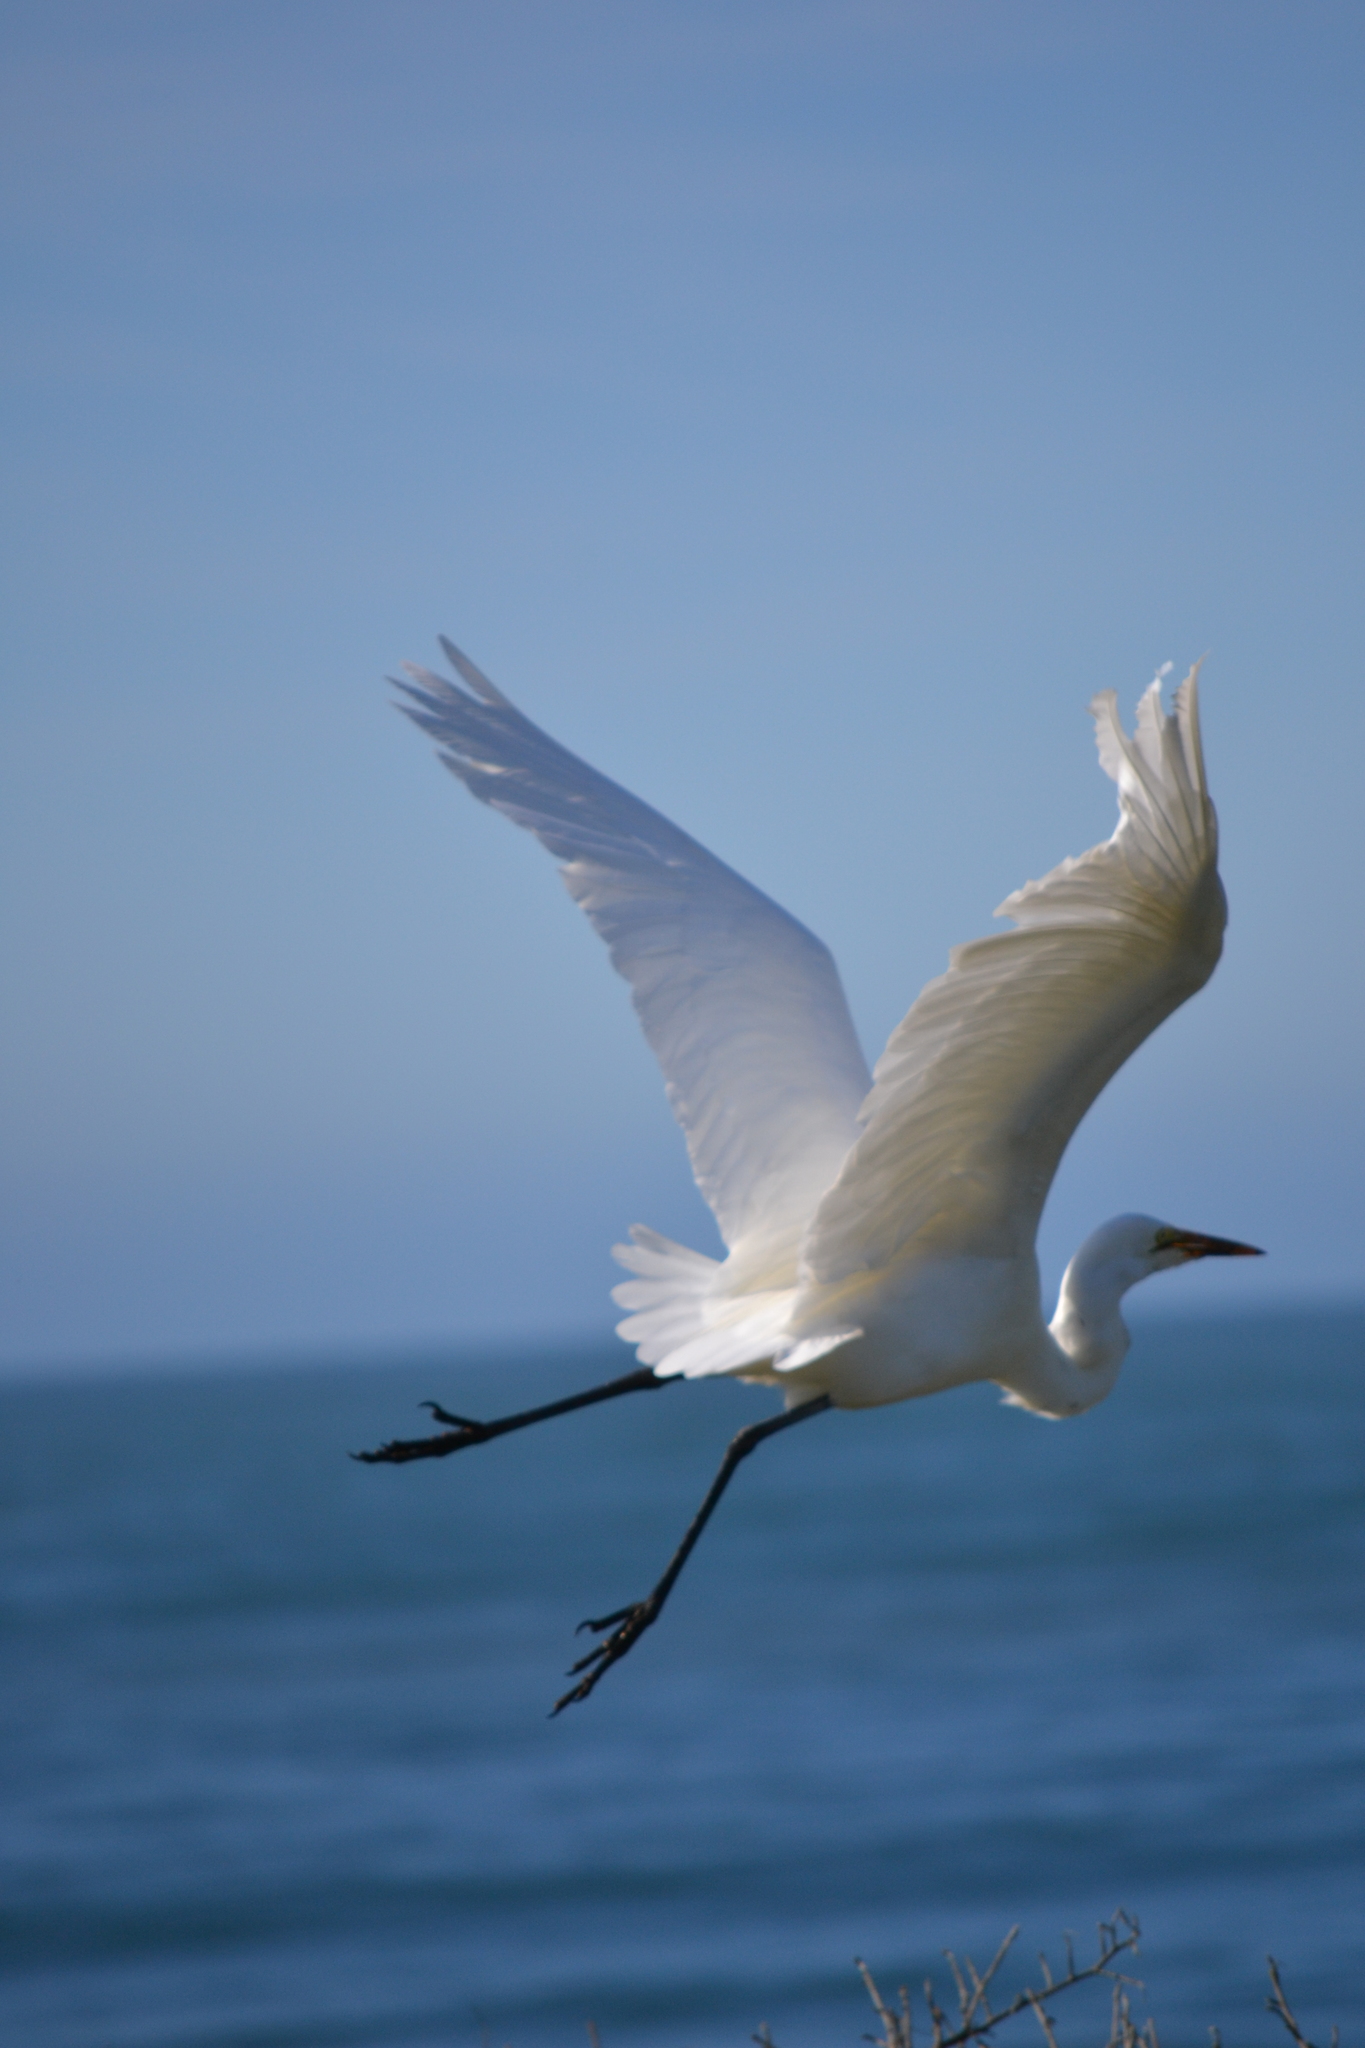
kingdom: Animalia
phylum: Chordata
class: Aves
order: Pelecaniformes
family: Ardeidae
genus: Ardea
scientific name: Ardea alba
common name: Great egret
